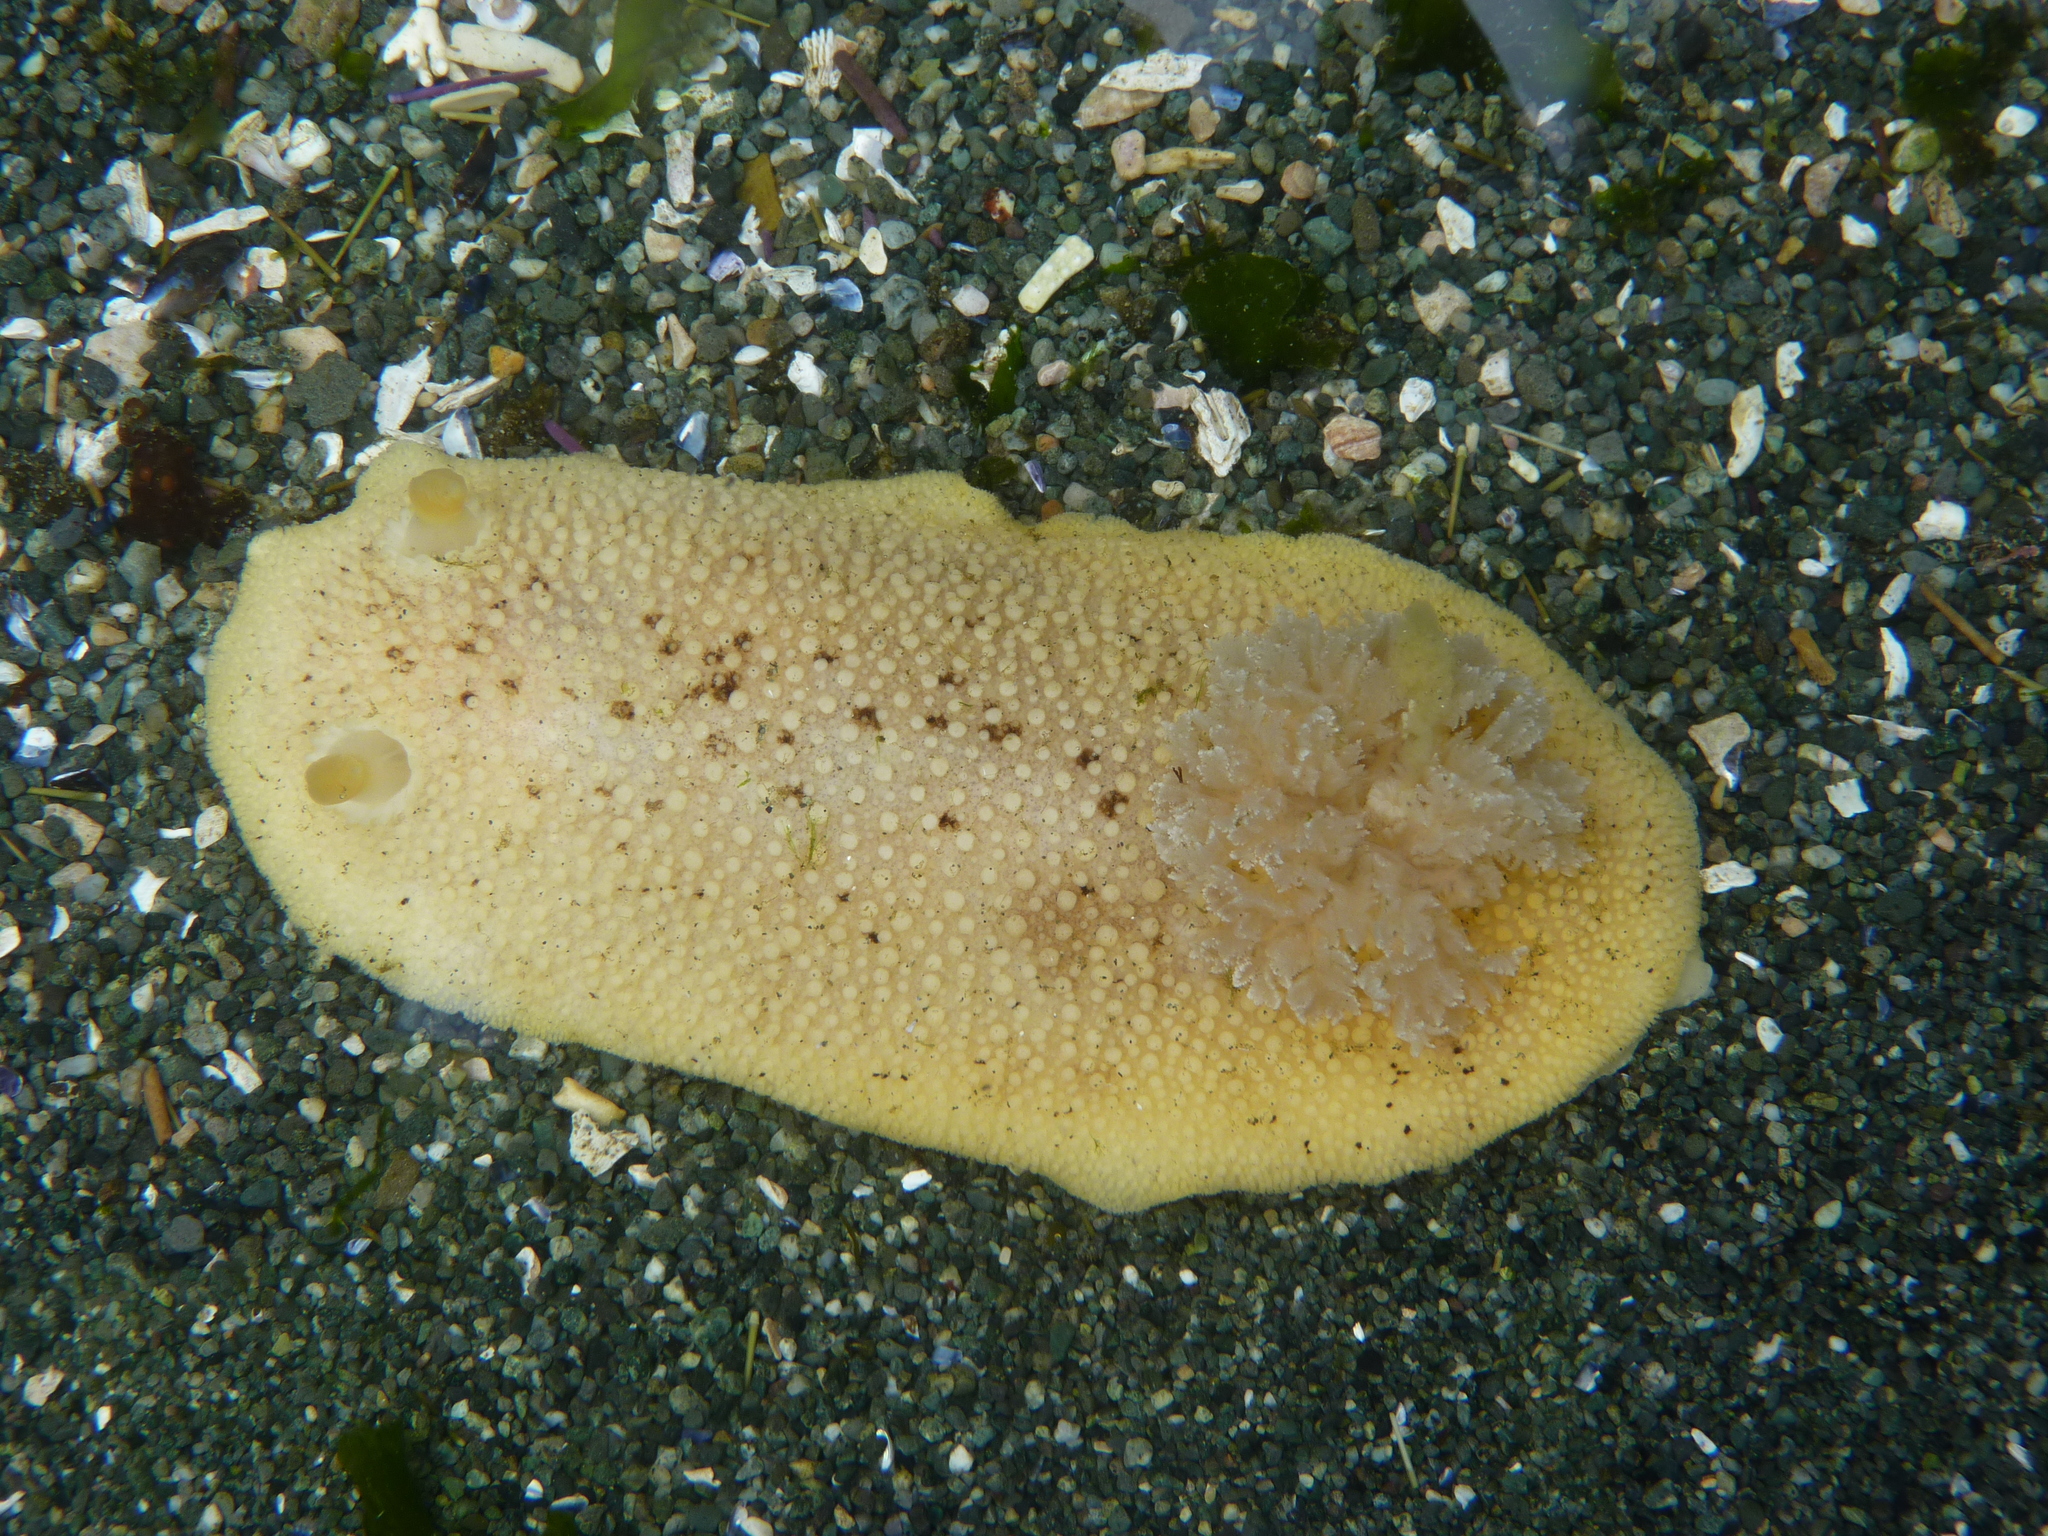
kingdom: Animalia
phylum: Mollusca
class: Gastropoda
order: Nudibranchia
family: Discodorididae
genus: Peltodoris
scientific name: Peltodoris nobilis
